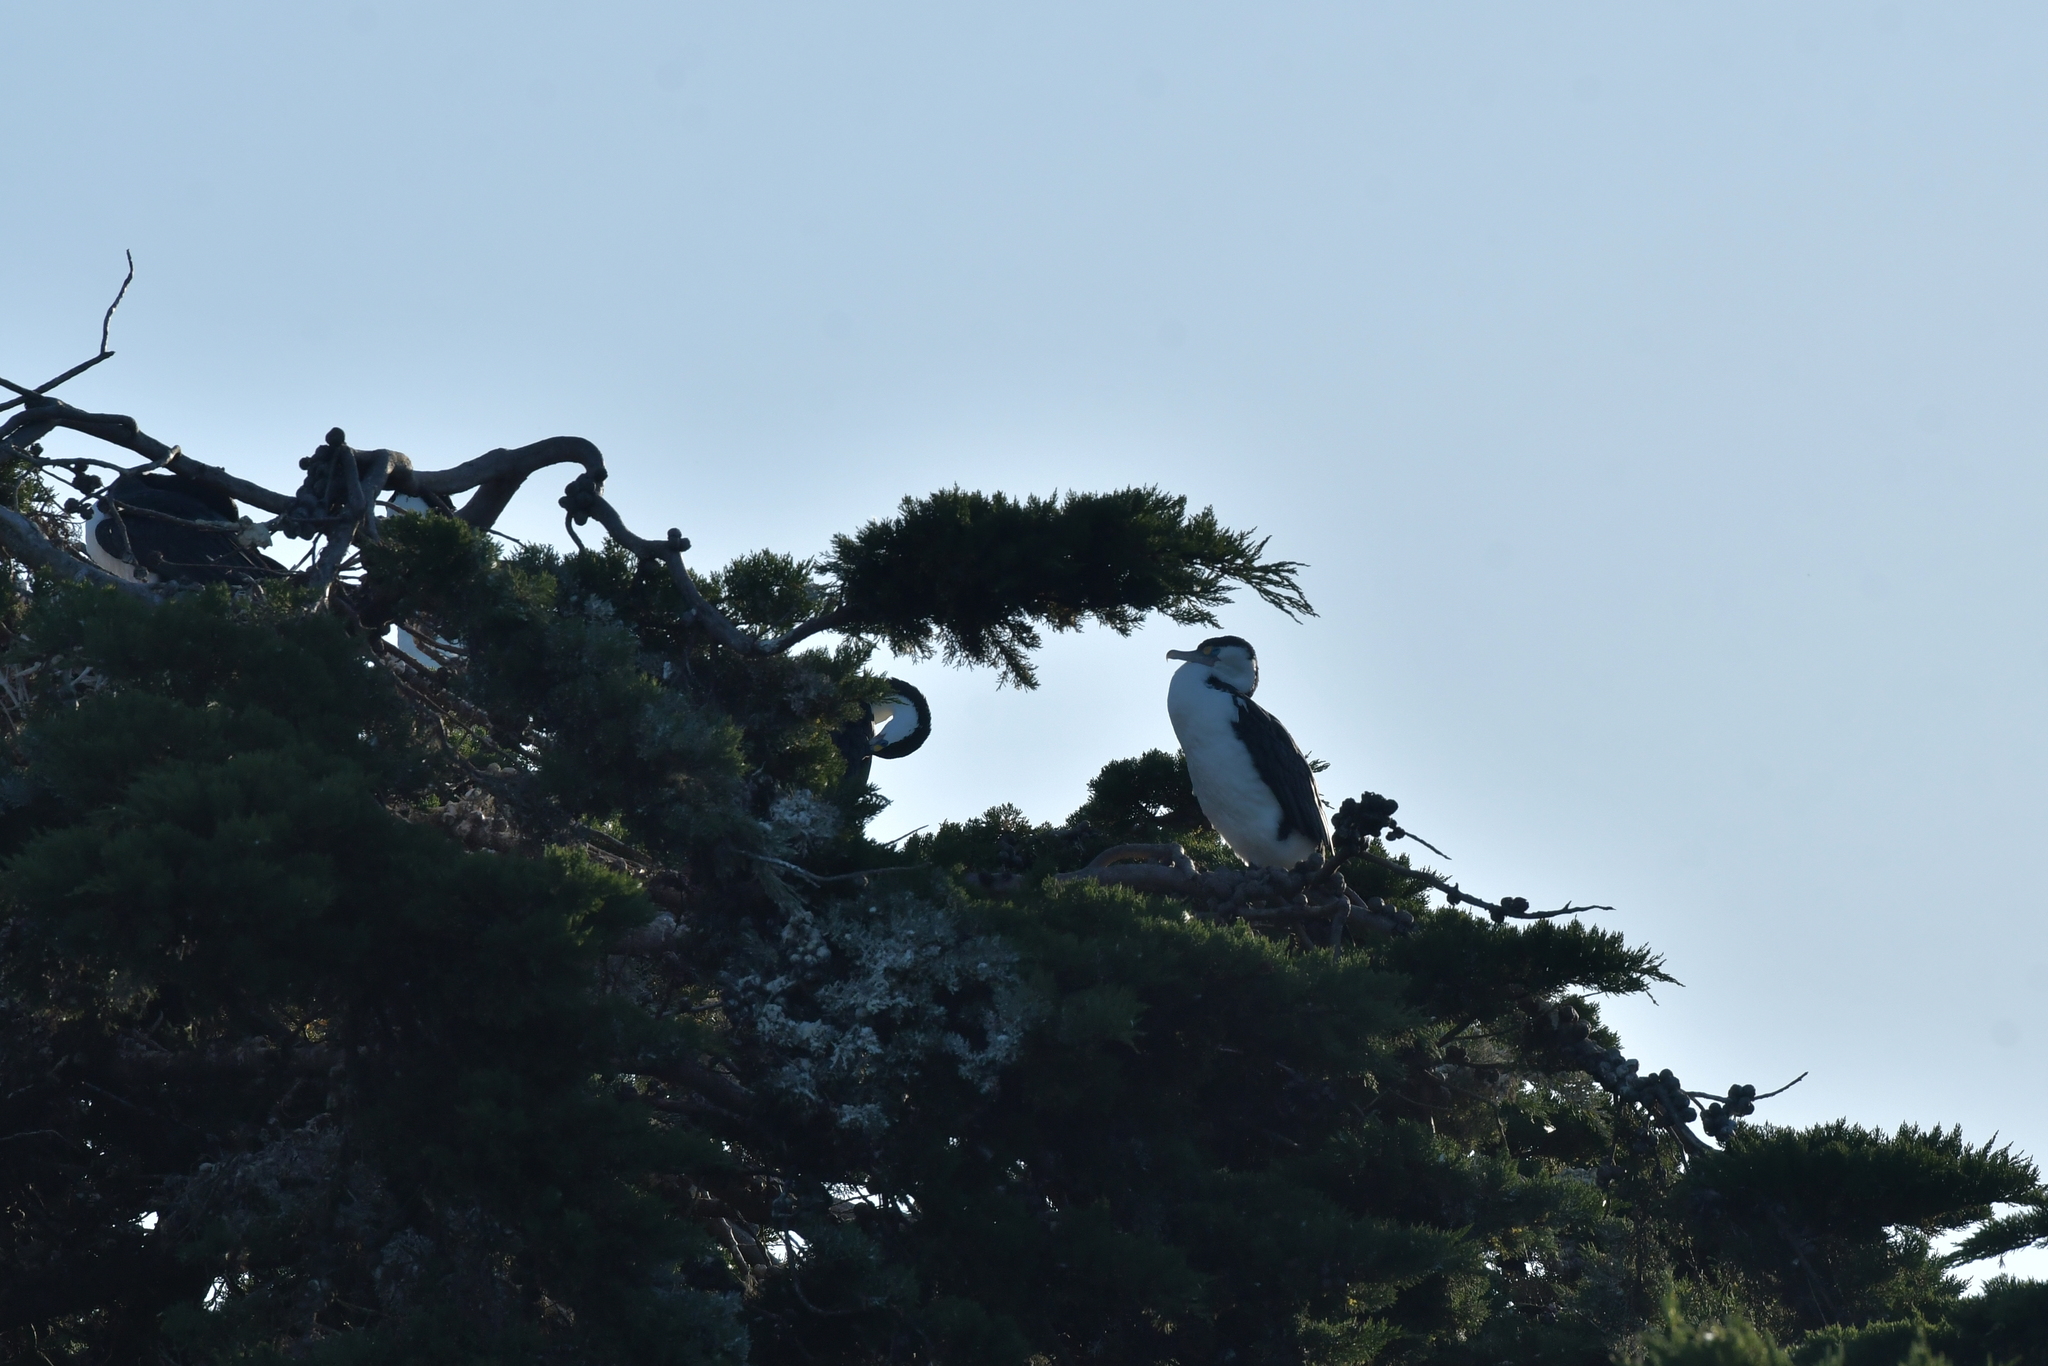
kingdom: Animalia
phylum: Chordata
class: Aves
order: Suliformes
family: Phalacrocoracidae
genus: Phalacrocorax
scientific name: Phalacrocorax varius
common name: Pied cormorant
